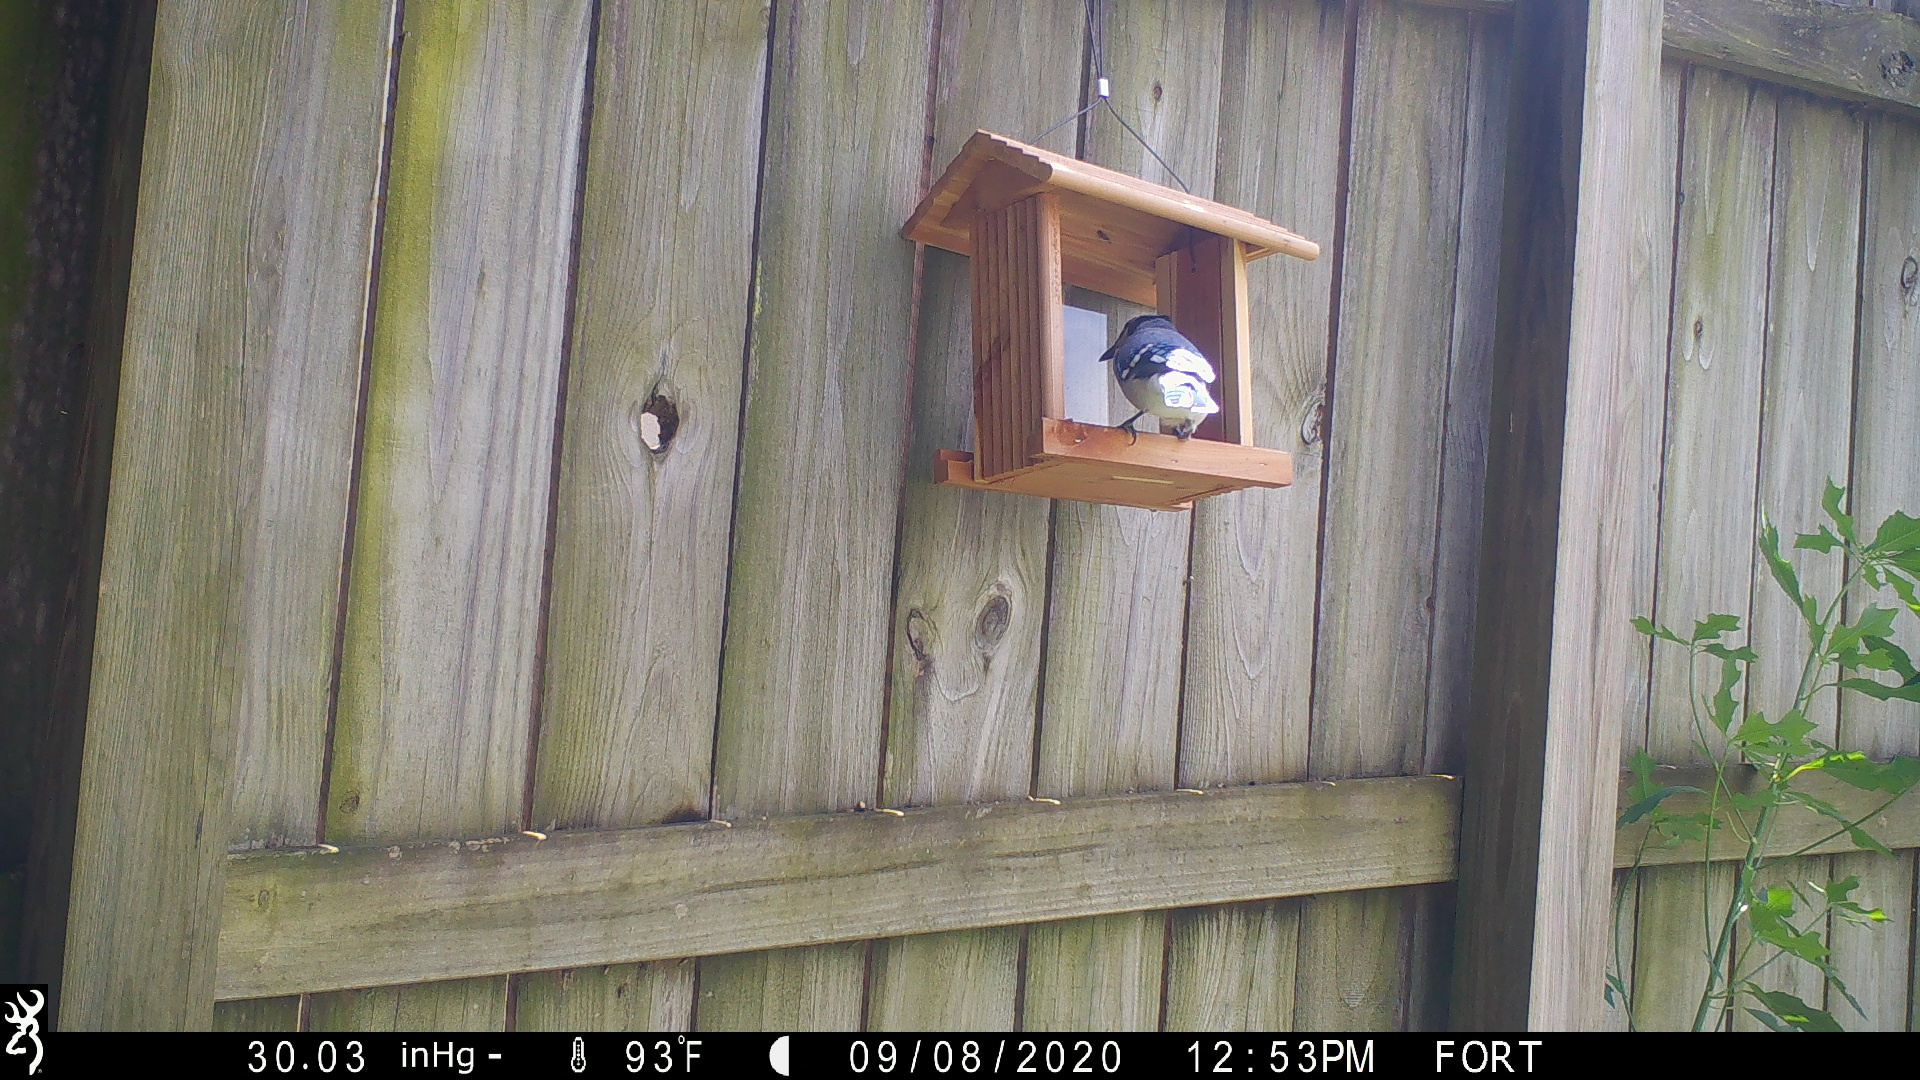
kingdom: Animalia
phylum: Chordata
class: Aves
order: Passeriformes
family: Corvidae
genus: Cyanocitta
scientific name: Cyanocitta cristata
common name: Blue jay
